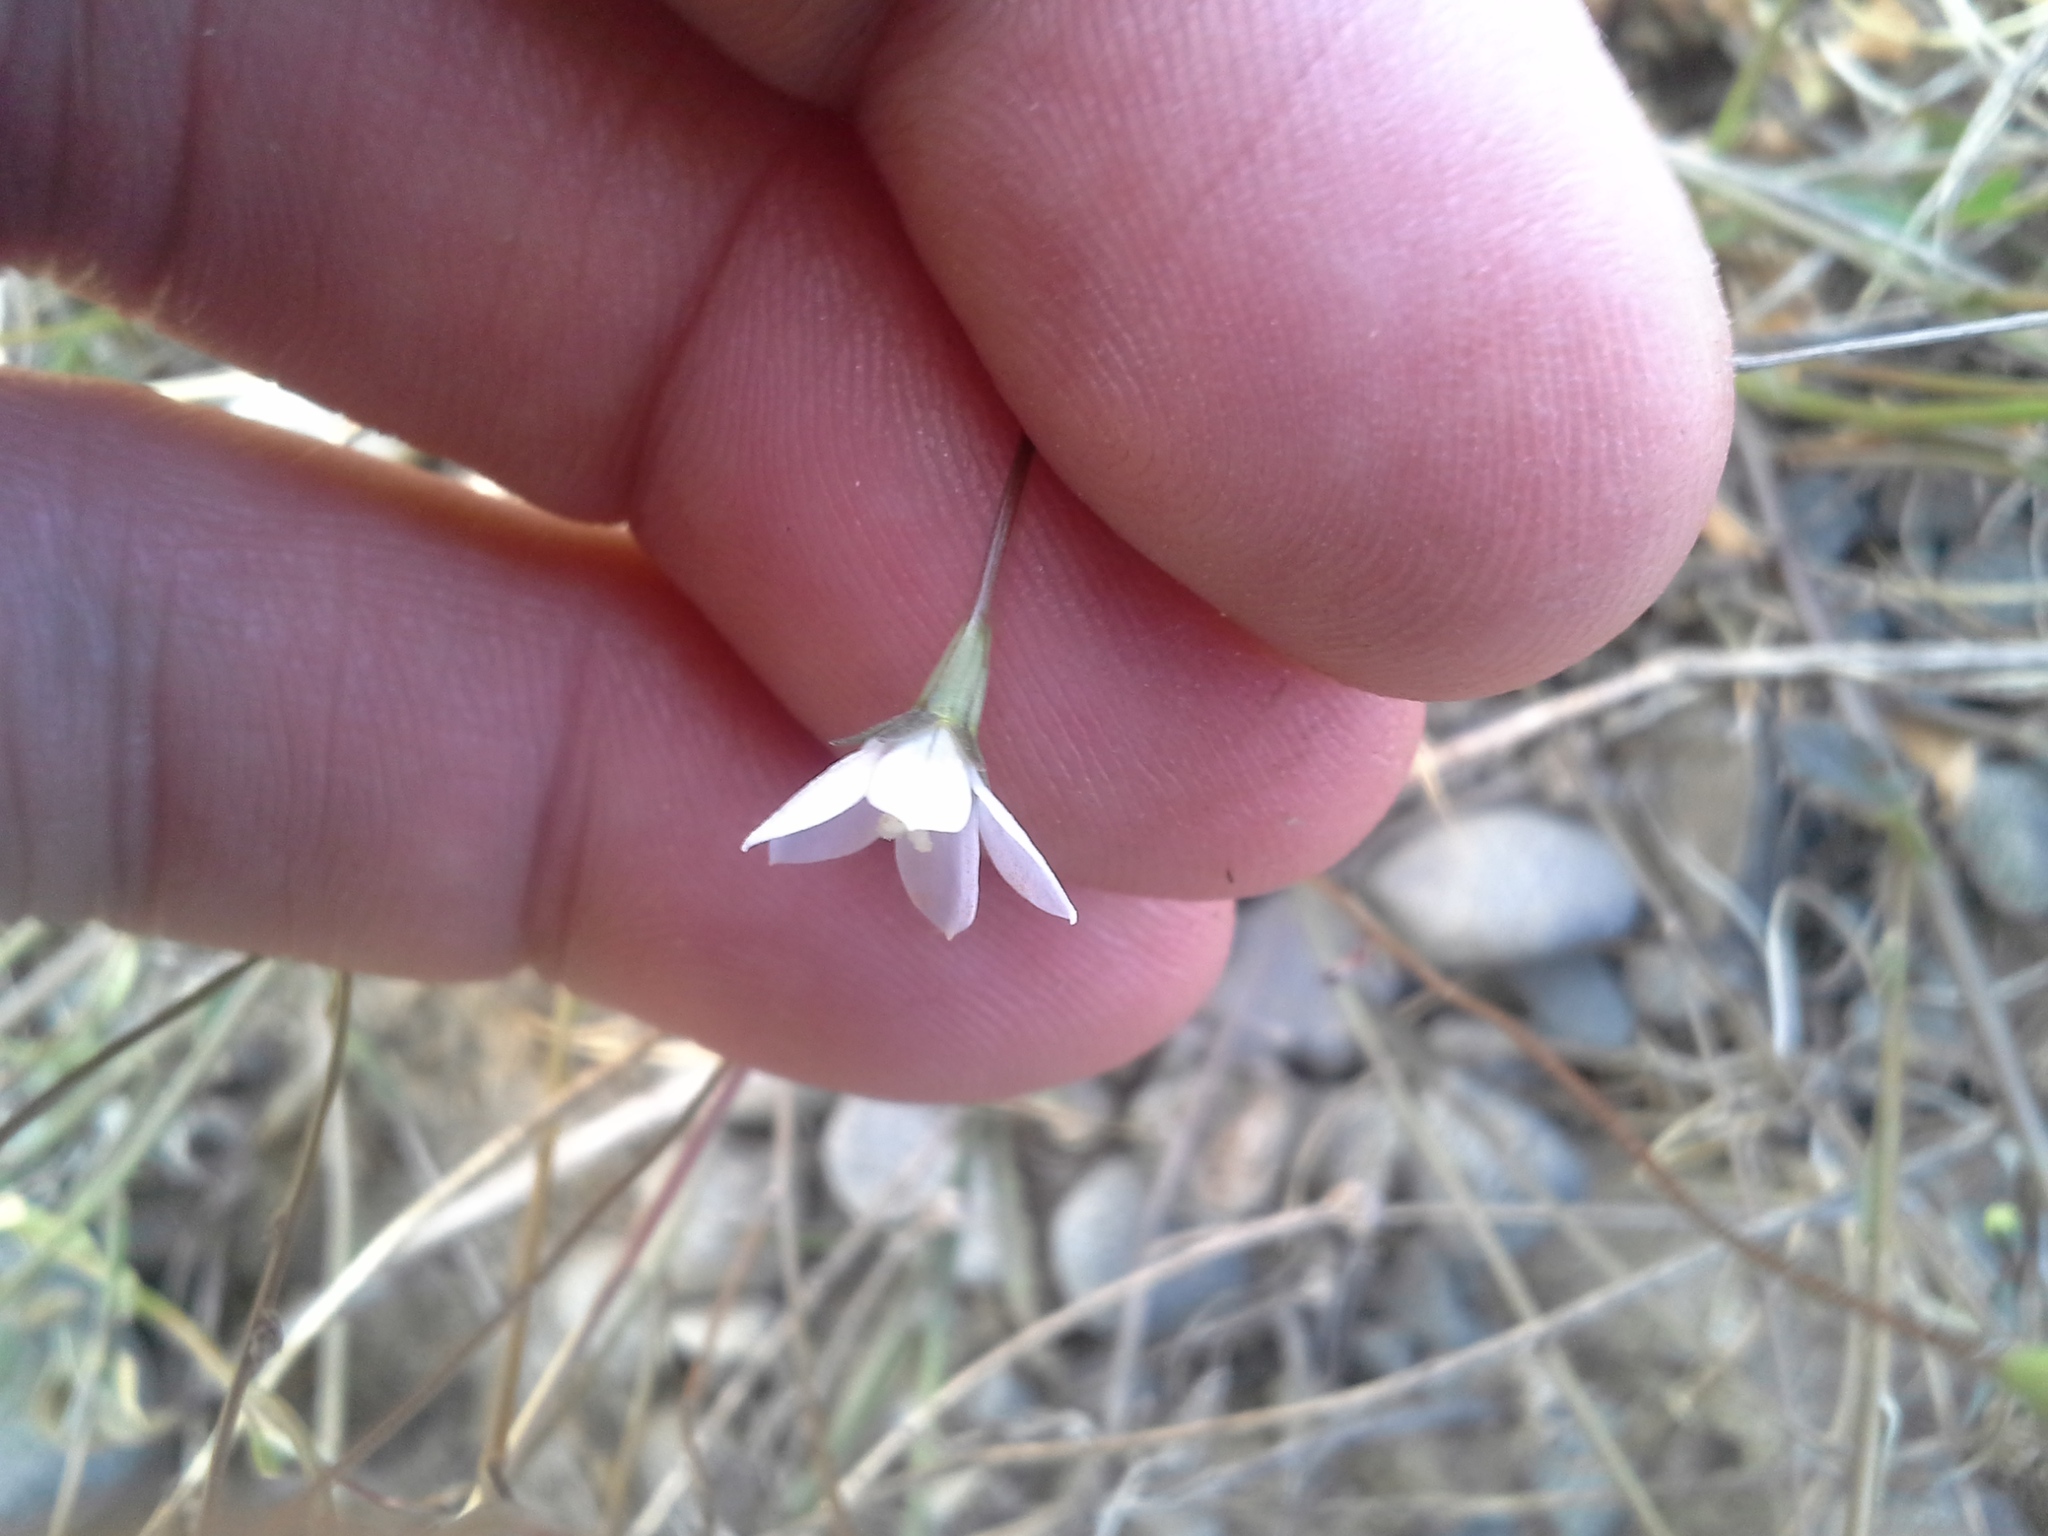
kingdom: Plantae
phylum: Tracheophyta
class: Magnoliopsida
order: Asterales
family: Campanulaceae
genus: Wahlenbergia
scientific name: Wahlenbergia rupestris
